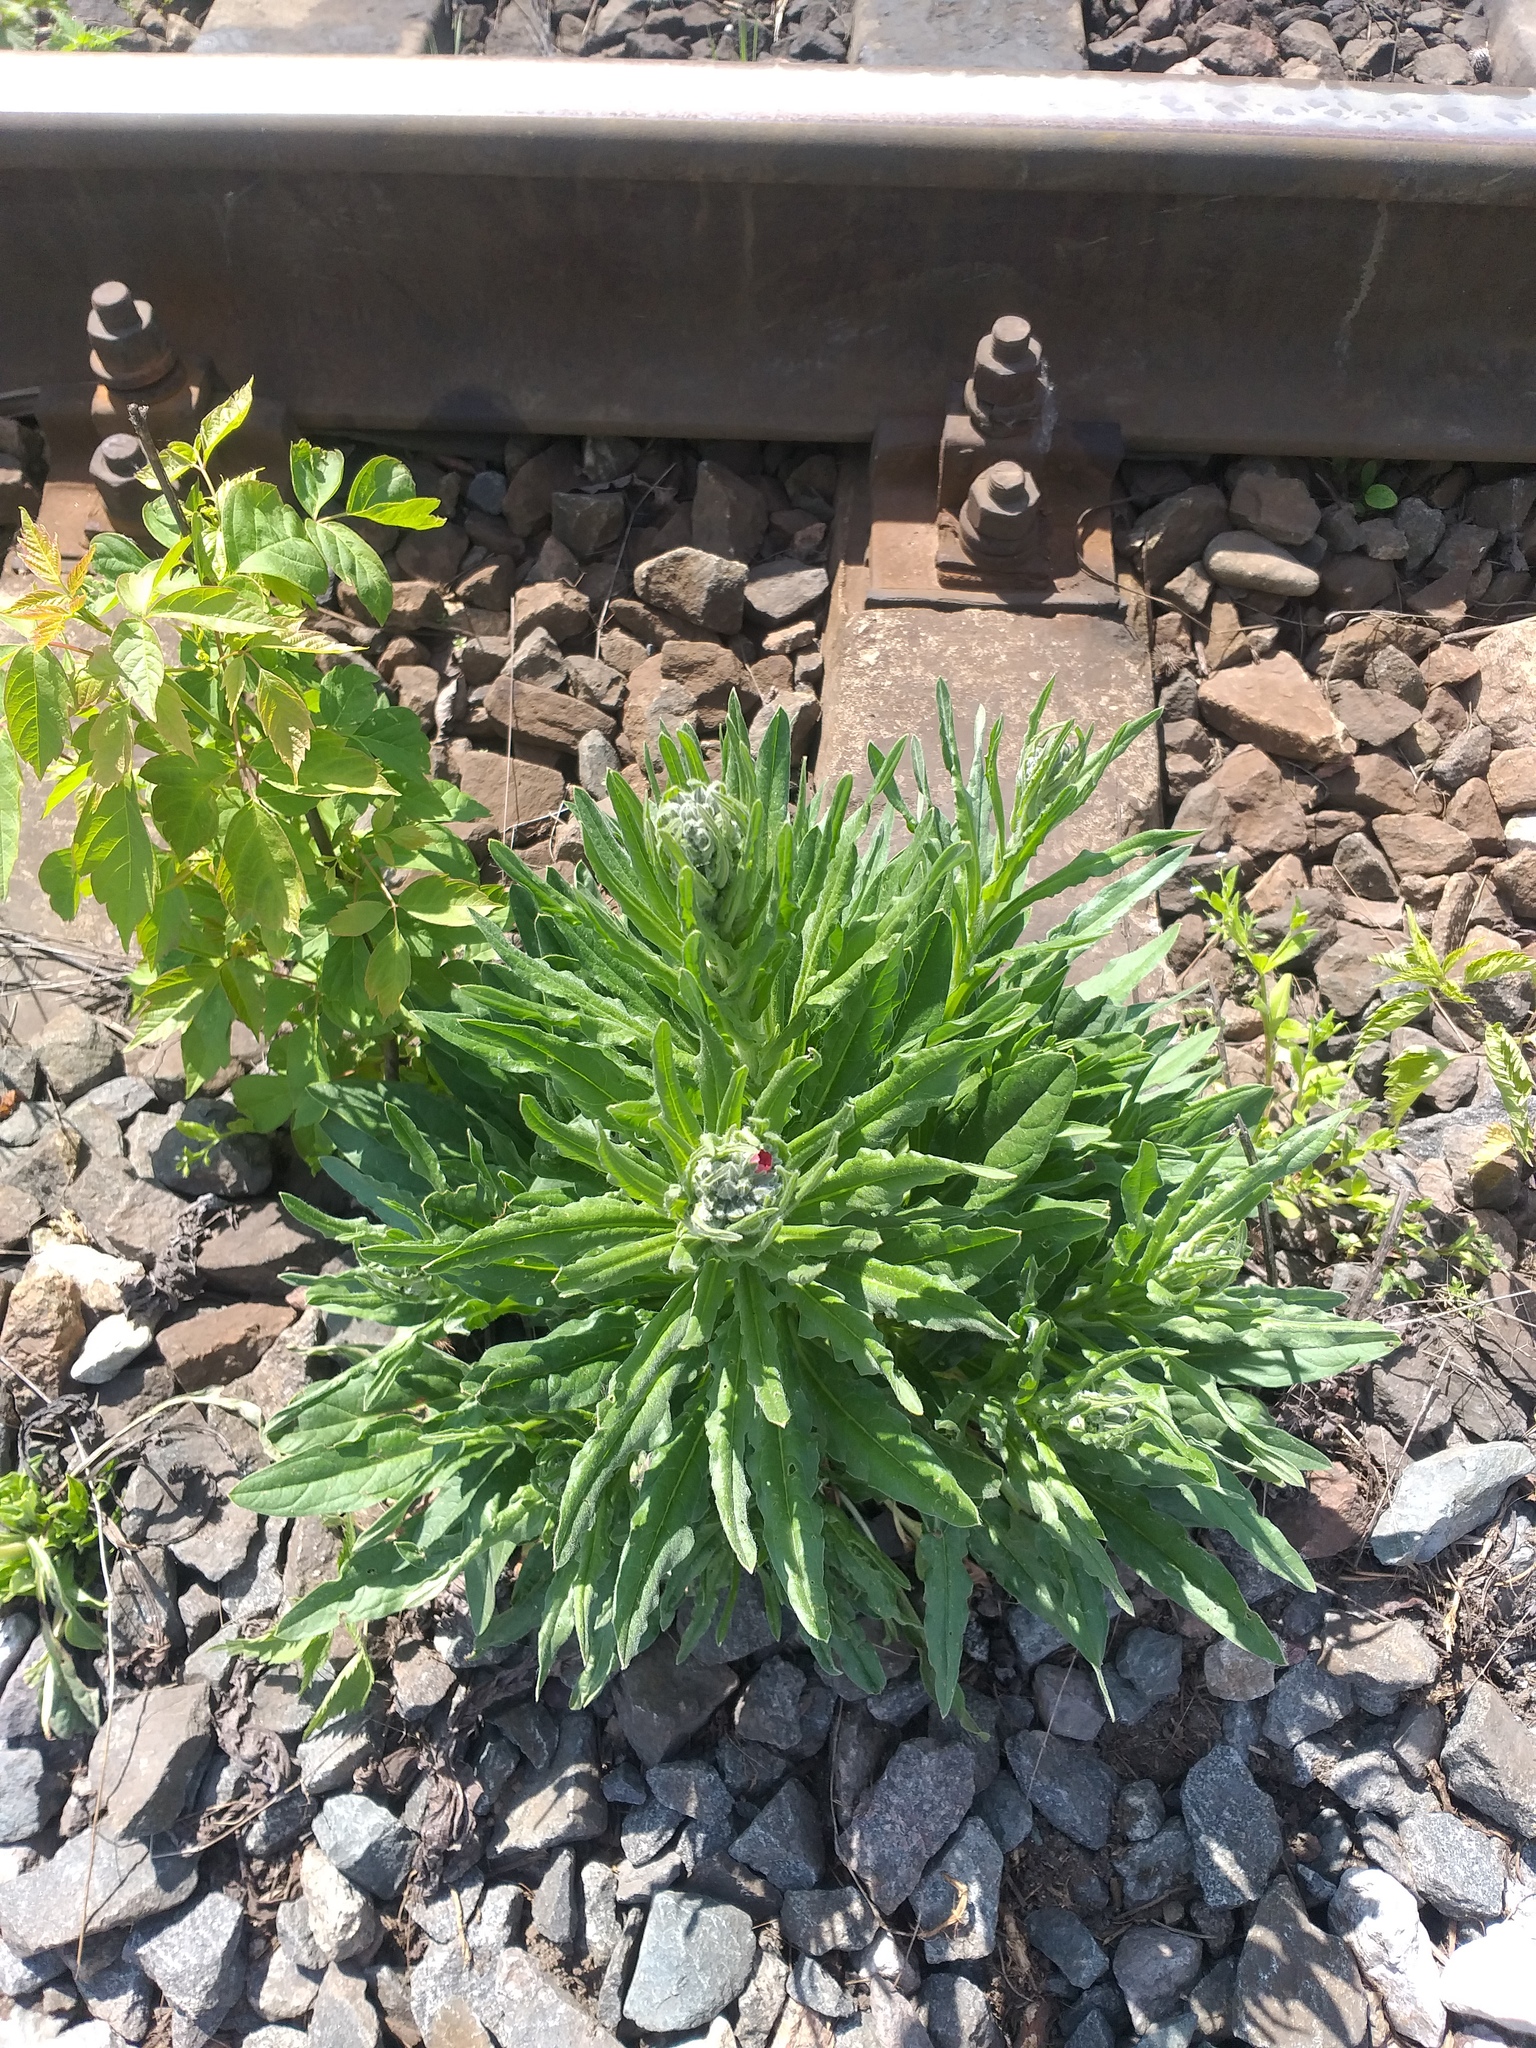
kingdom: Plantae
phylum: Tracheophyta
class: Magnoliopsida
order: Boraginales
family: Boraginaceae
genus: Cynoglossum
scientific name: Cynoglossum officinale
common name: Hound's-tongue
